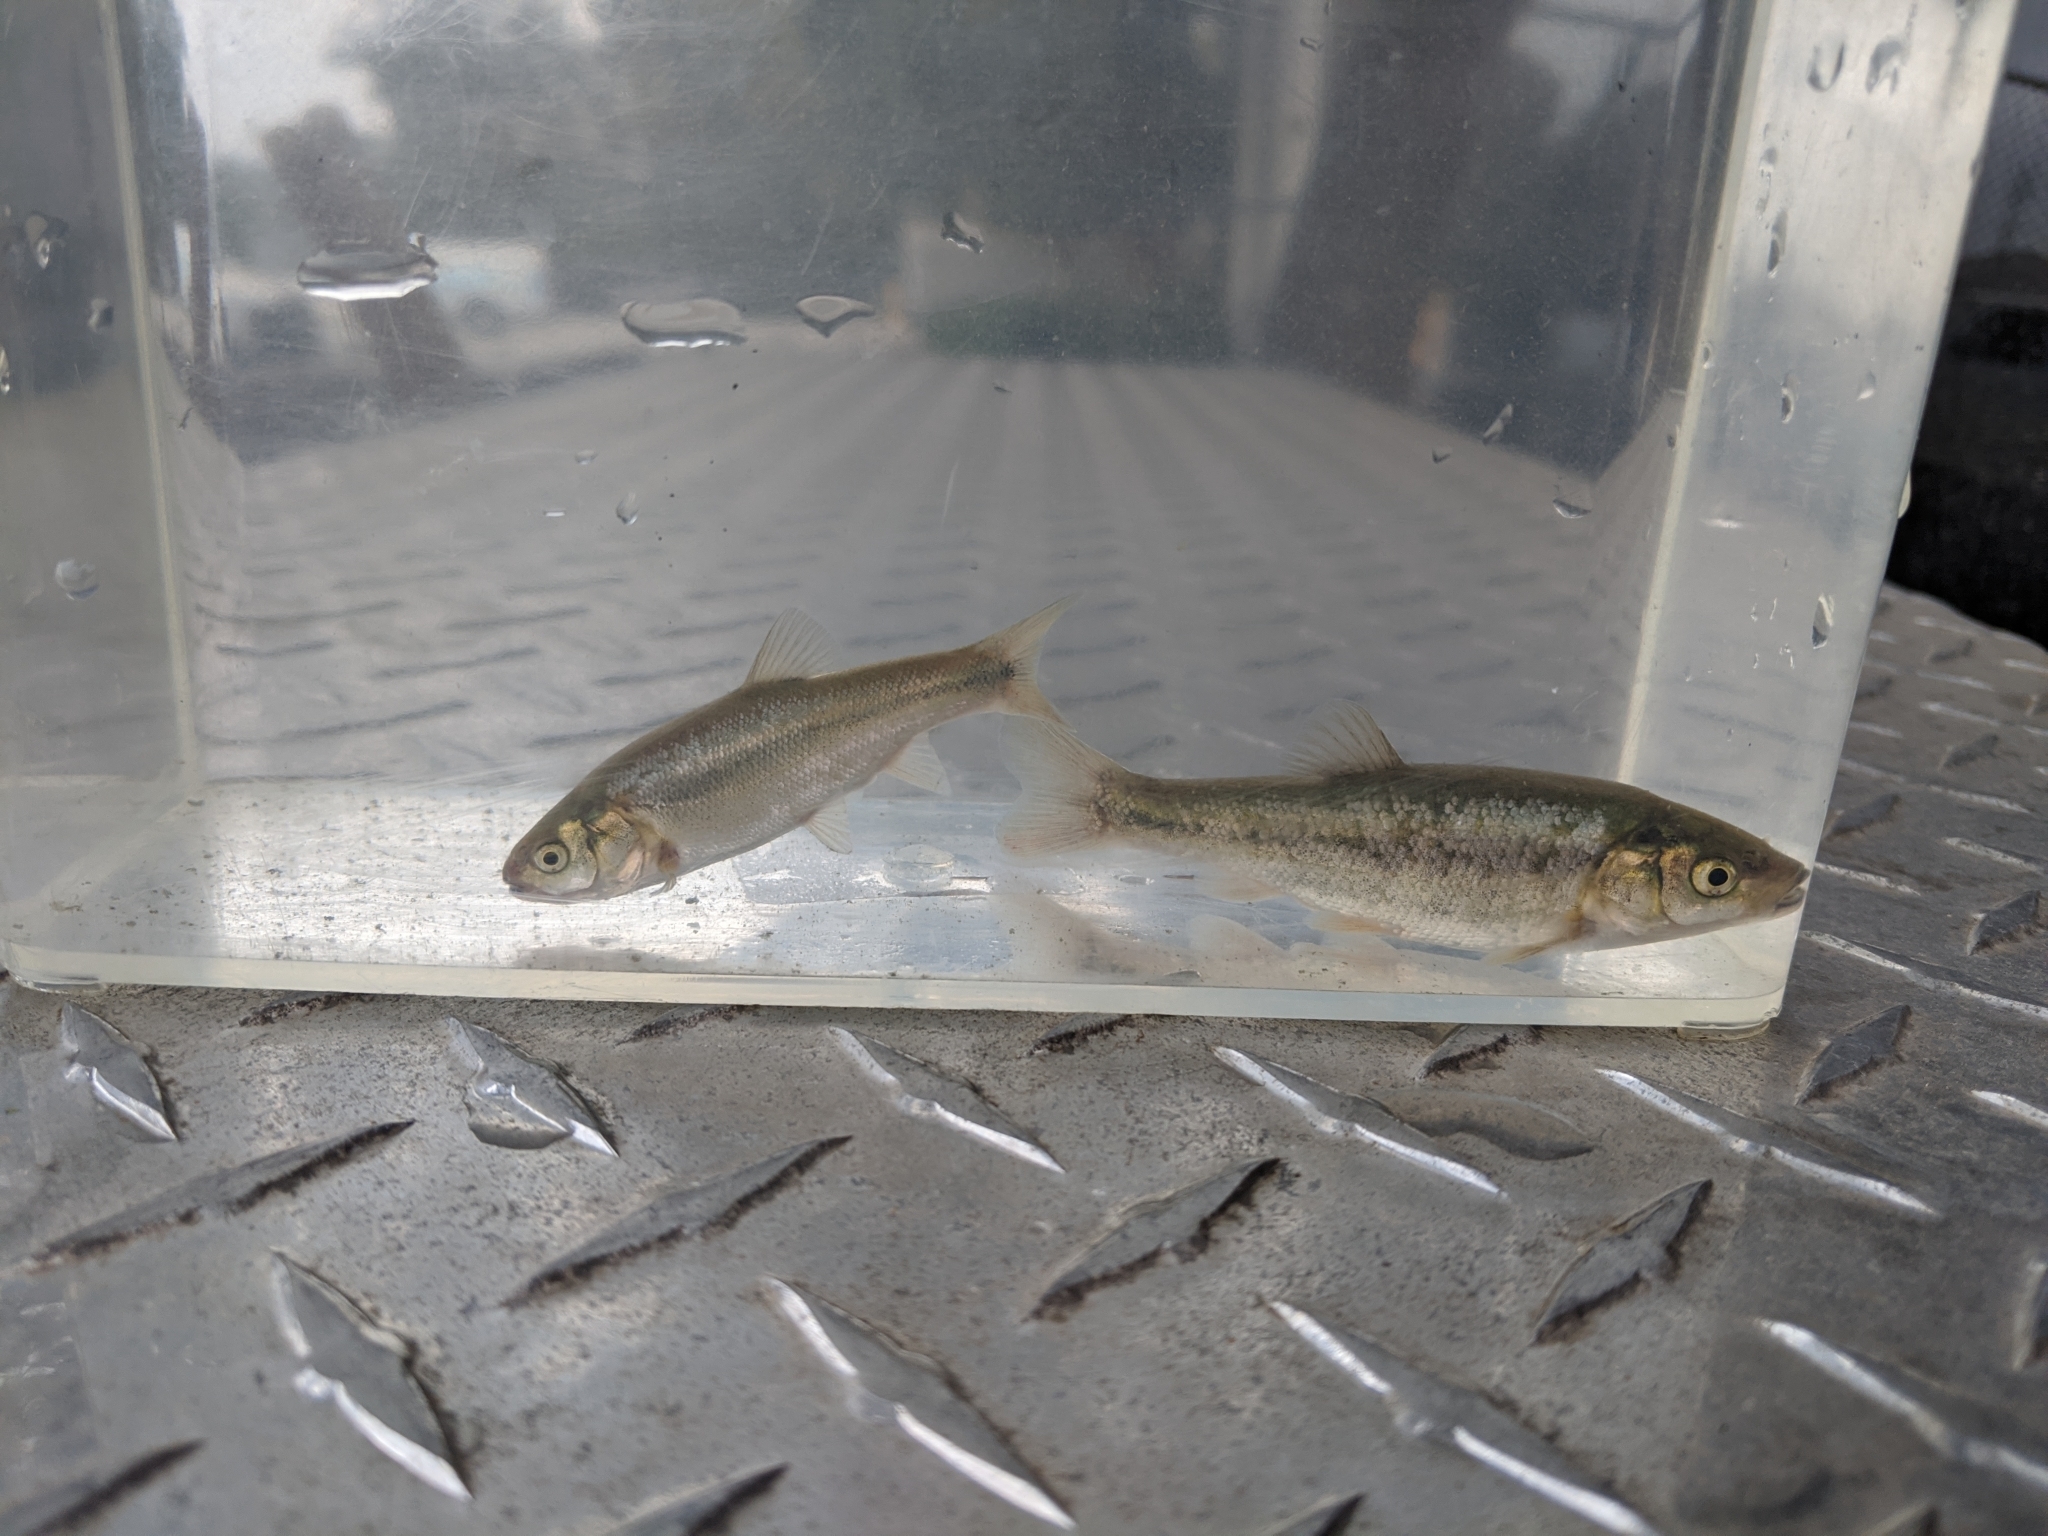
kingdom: Animalia
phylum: Chordata
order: Cypriniformes
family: Cyprinidae
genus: Gila
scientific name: Gila orcuttii
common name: Arroyo chub
